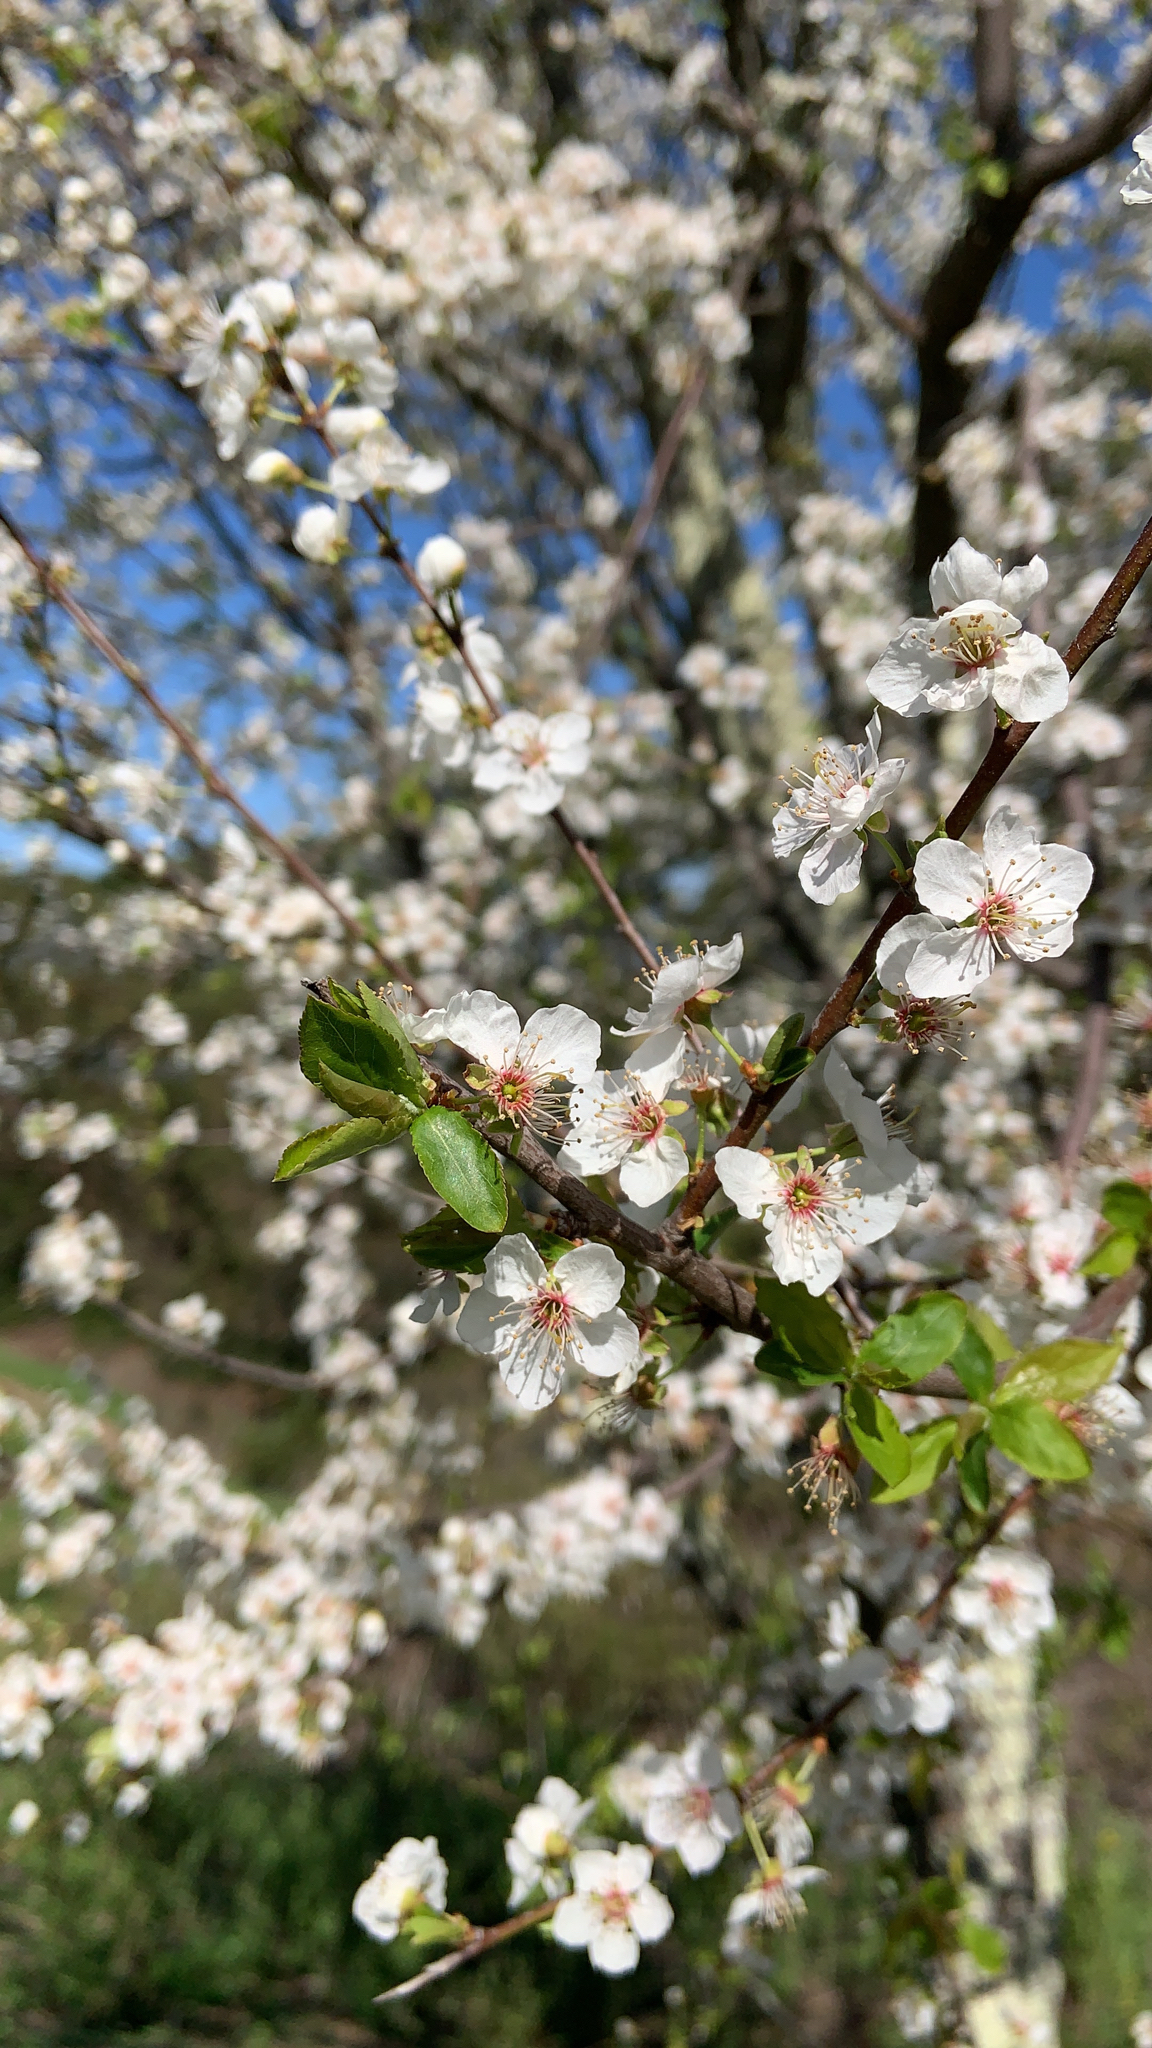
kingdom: Plantae
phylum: Tracheophyta
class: Magnoliopsida
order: Rosales
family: Rosaceae
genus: Prunus
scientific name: Prunus cerasifera
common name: Cherry plum
